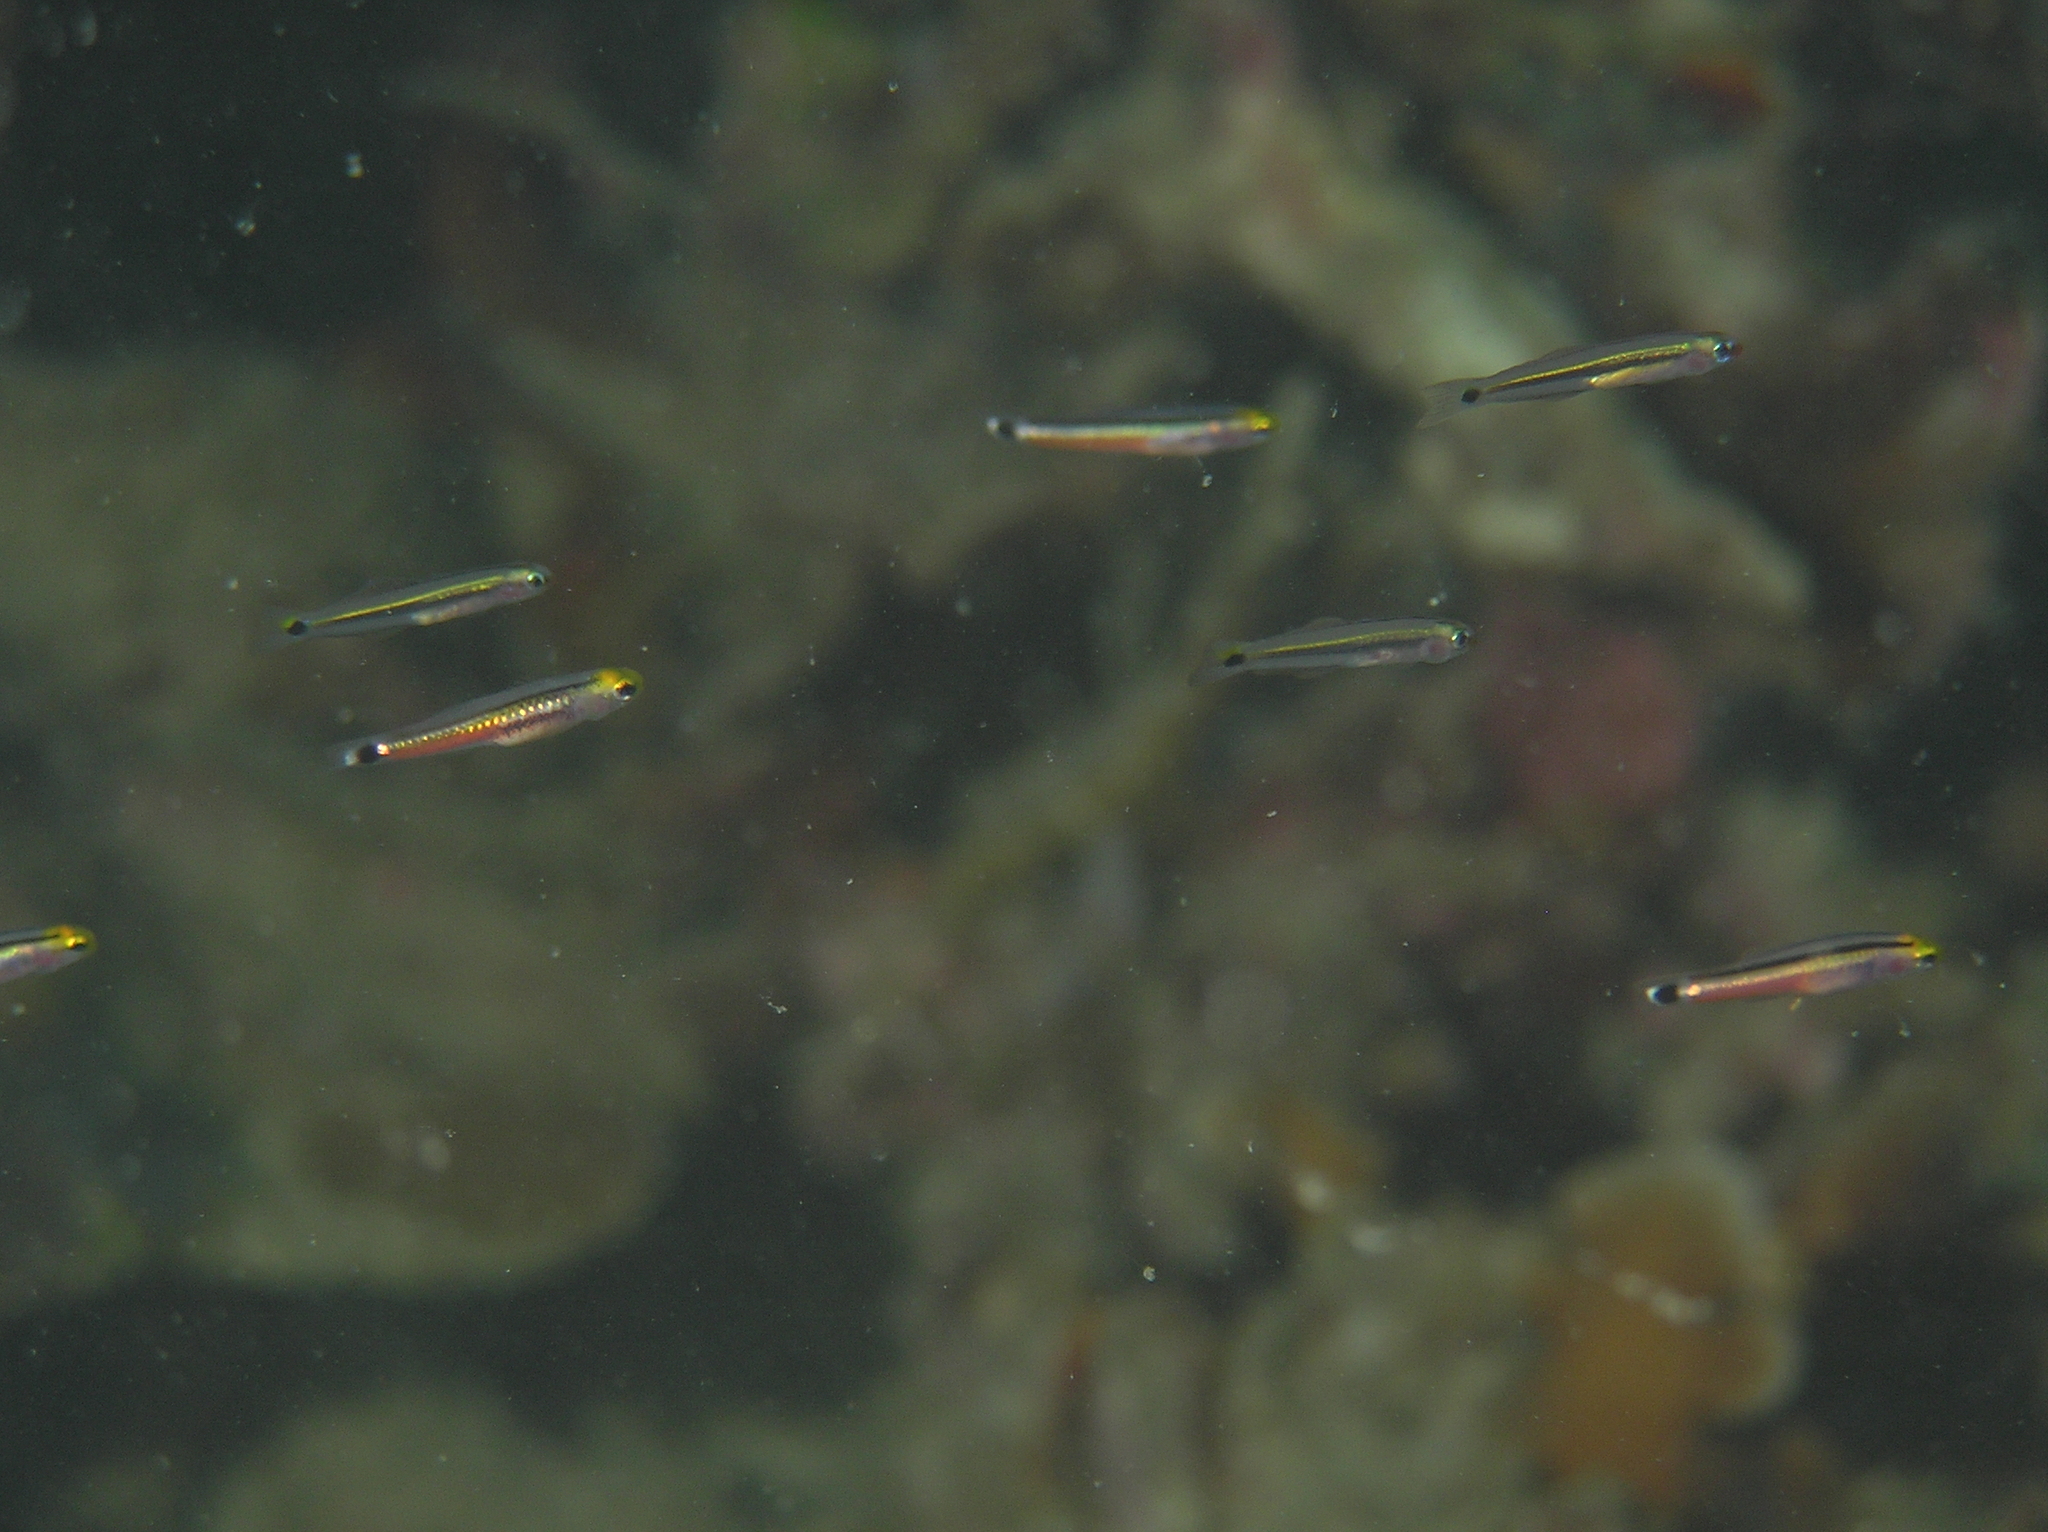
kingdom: Animalia
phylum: Chordata
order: Perciformes
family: Microdesmidae
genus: Aioliops
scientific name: Aioliops megastigma
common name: Bigspot minidartfish
